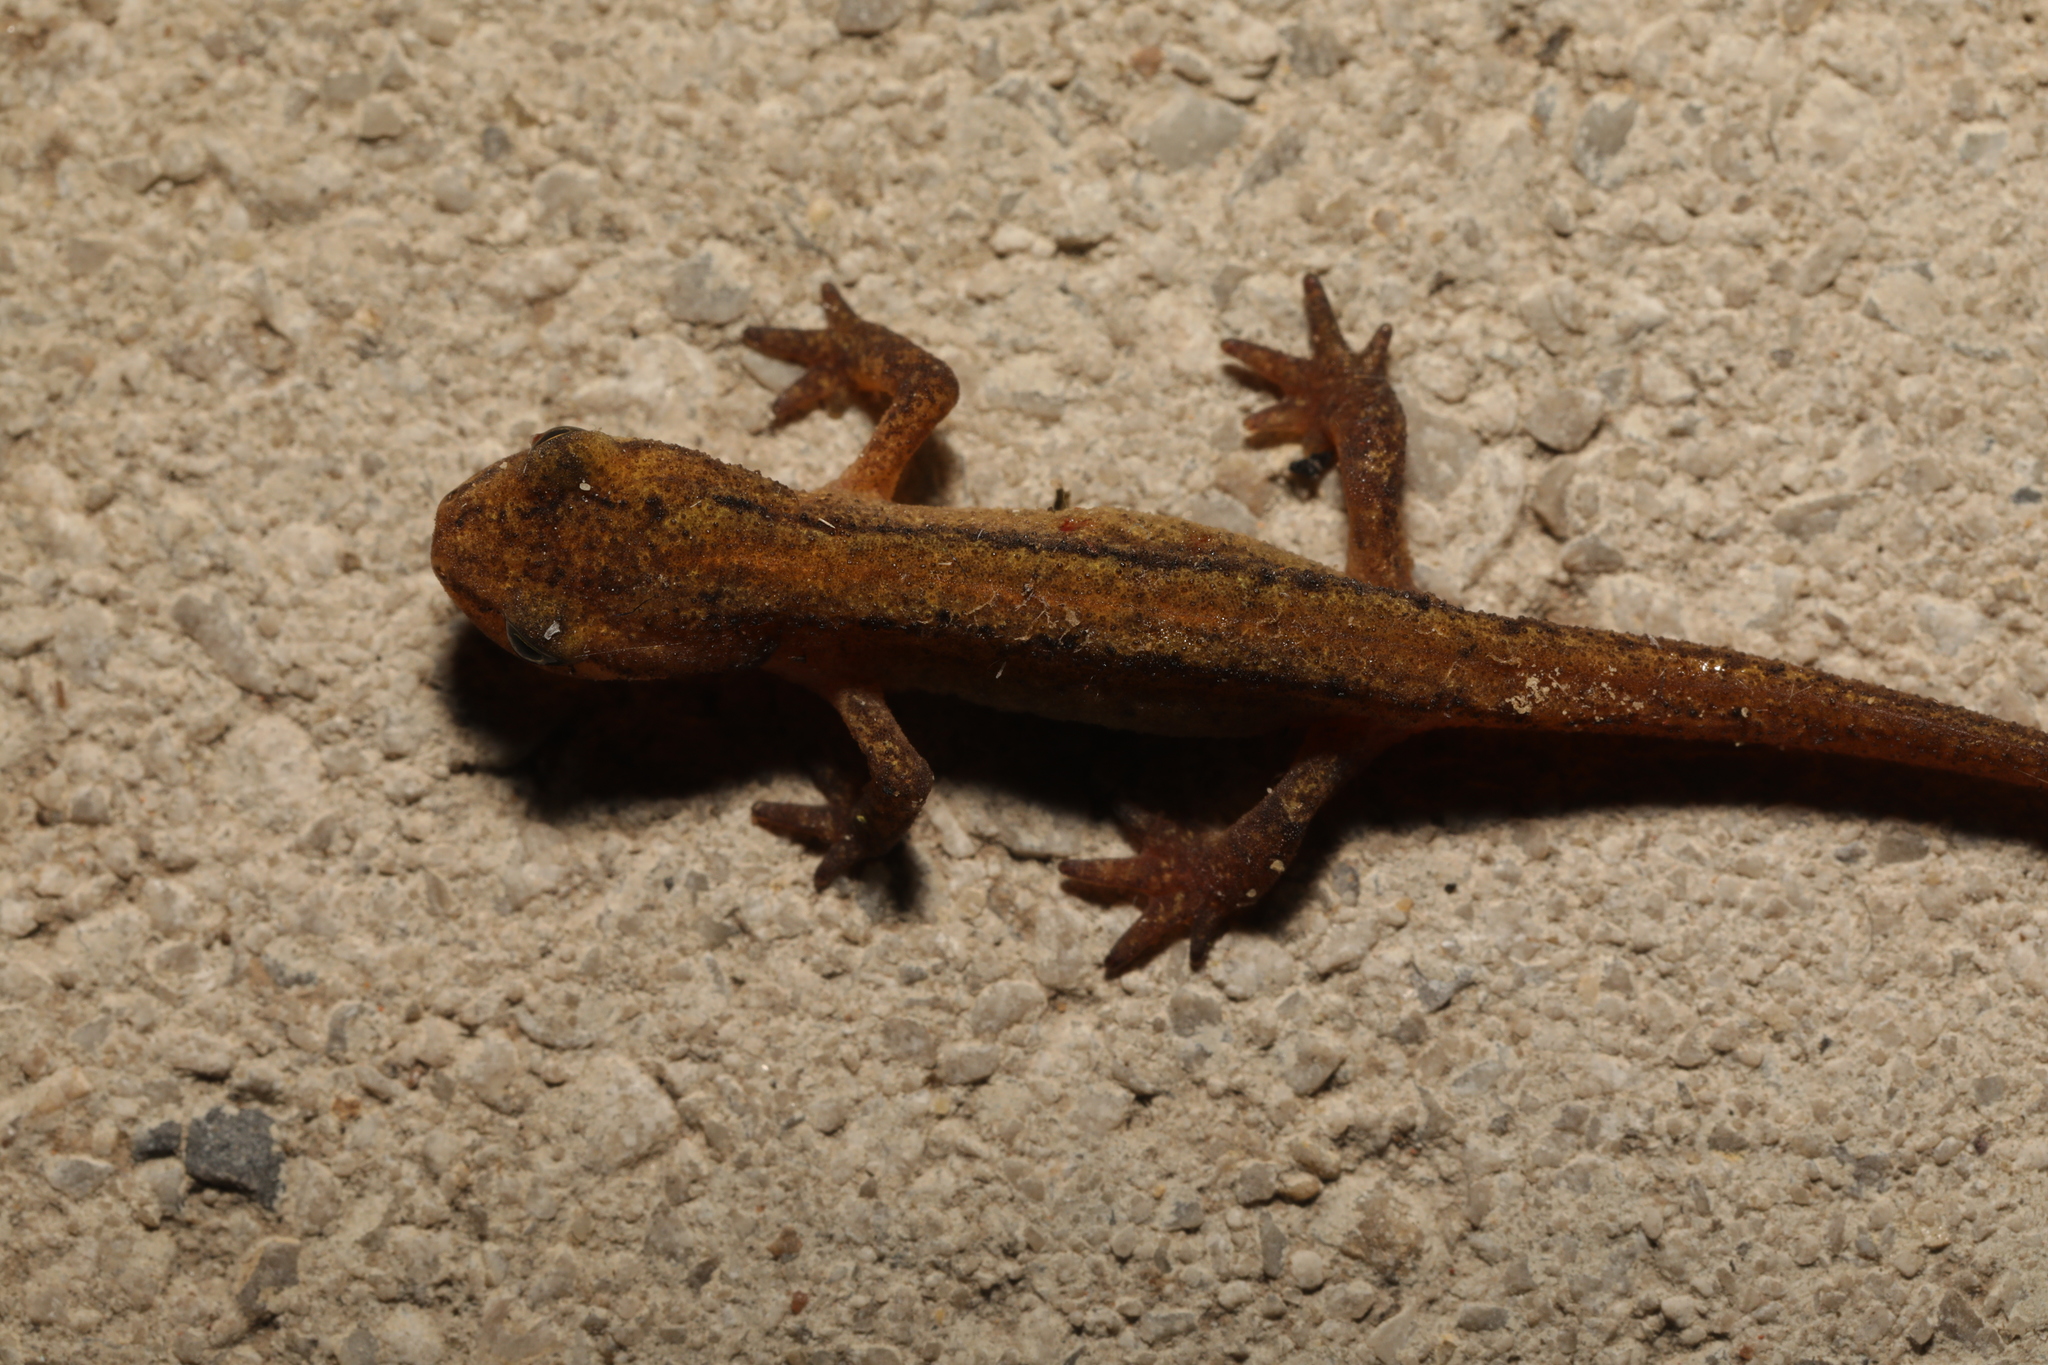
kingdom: Animalia
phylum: Chordata
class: Amphibia
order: Caudata
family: Salamandridae
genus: Lissotriton
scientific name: Lissotriton vulgaris
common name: Smooth newt
